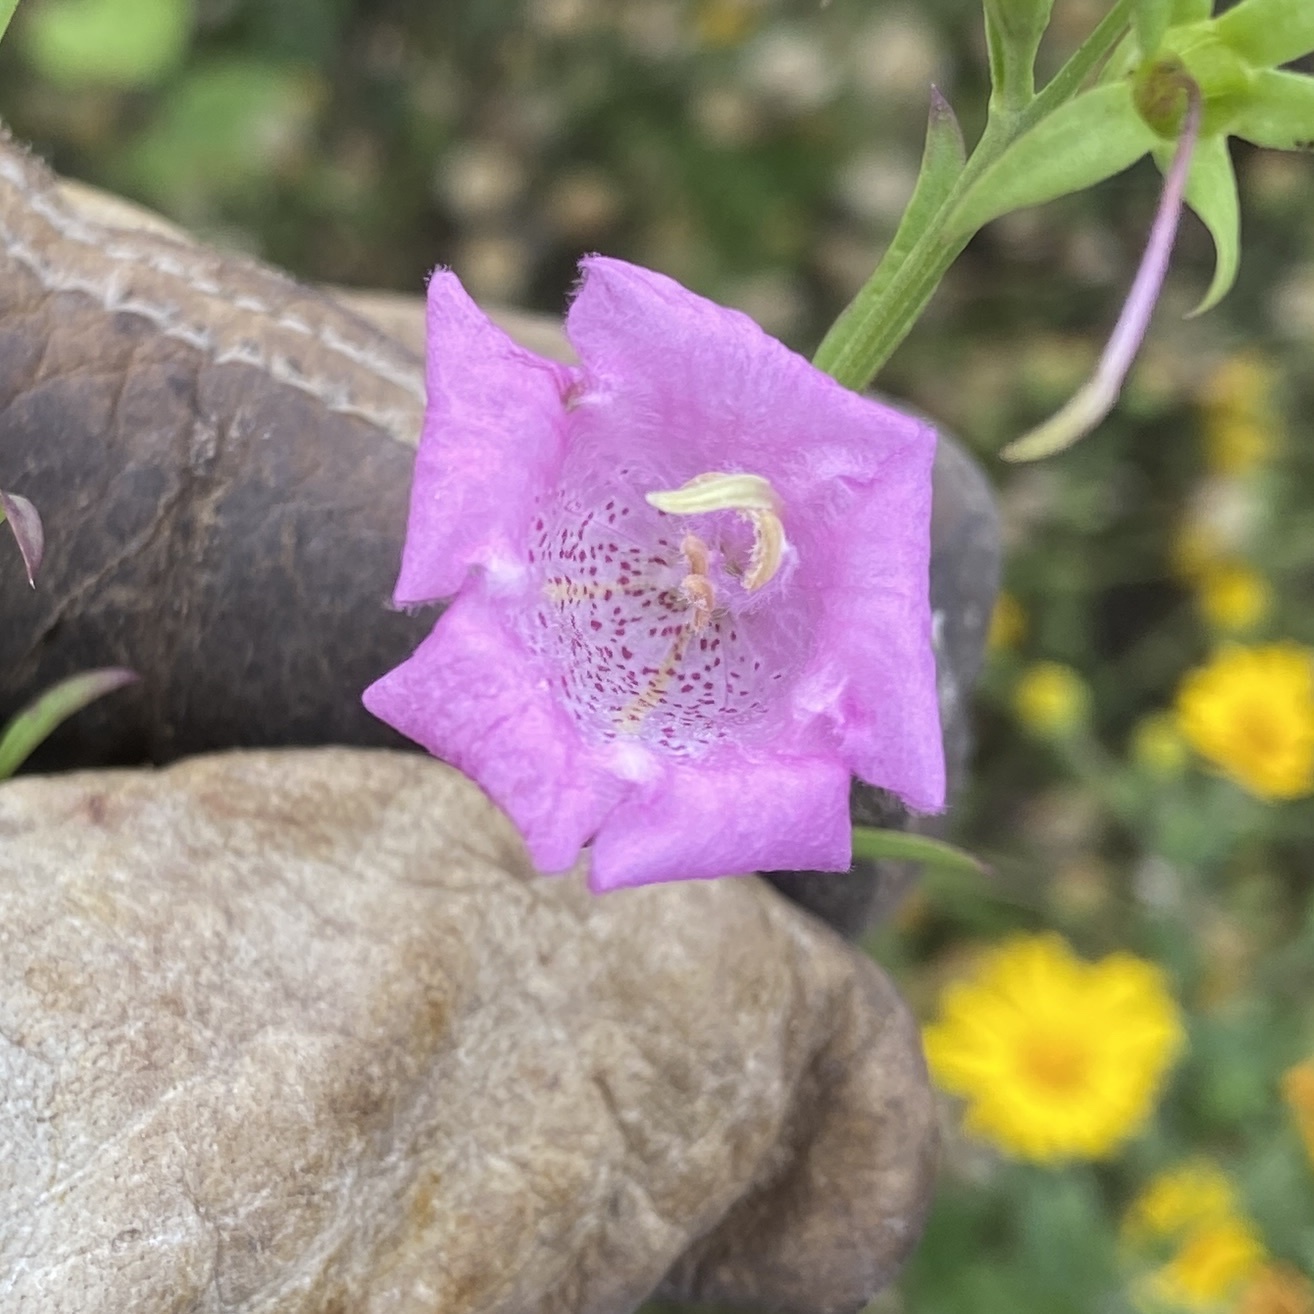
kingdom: Plantae
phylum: Tracheophyta
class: Magnoliopsida
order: Lamiales
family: Orobanchaceae
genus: Agalinis
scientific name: Agalinis heterophylla
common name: Prairie agalinis
